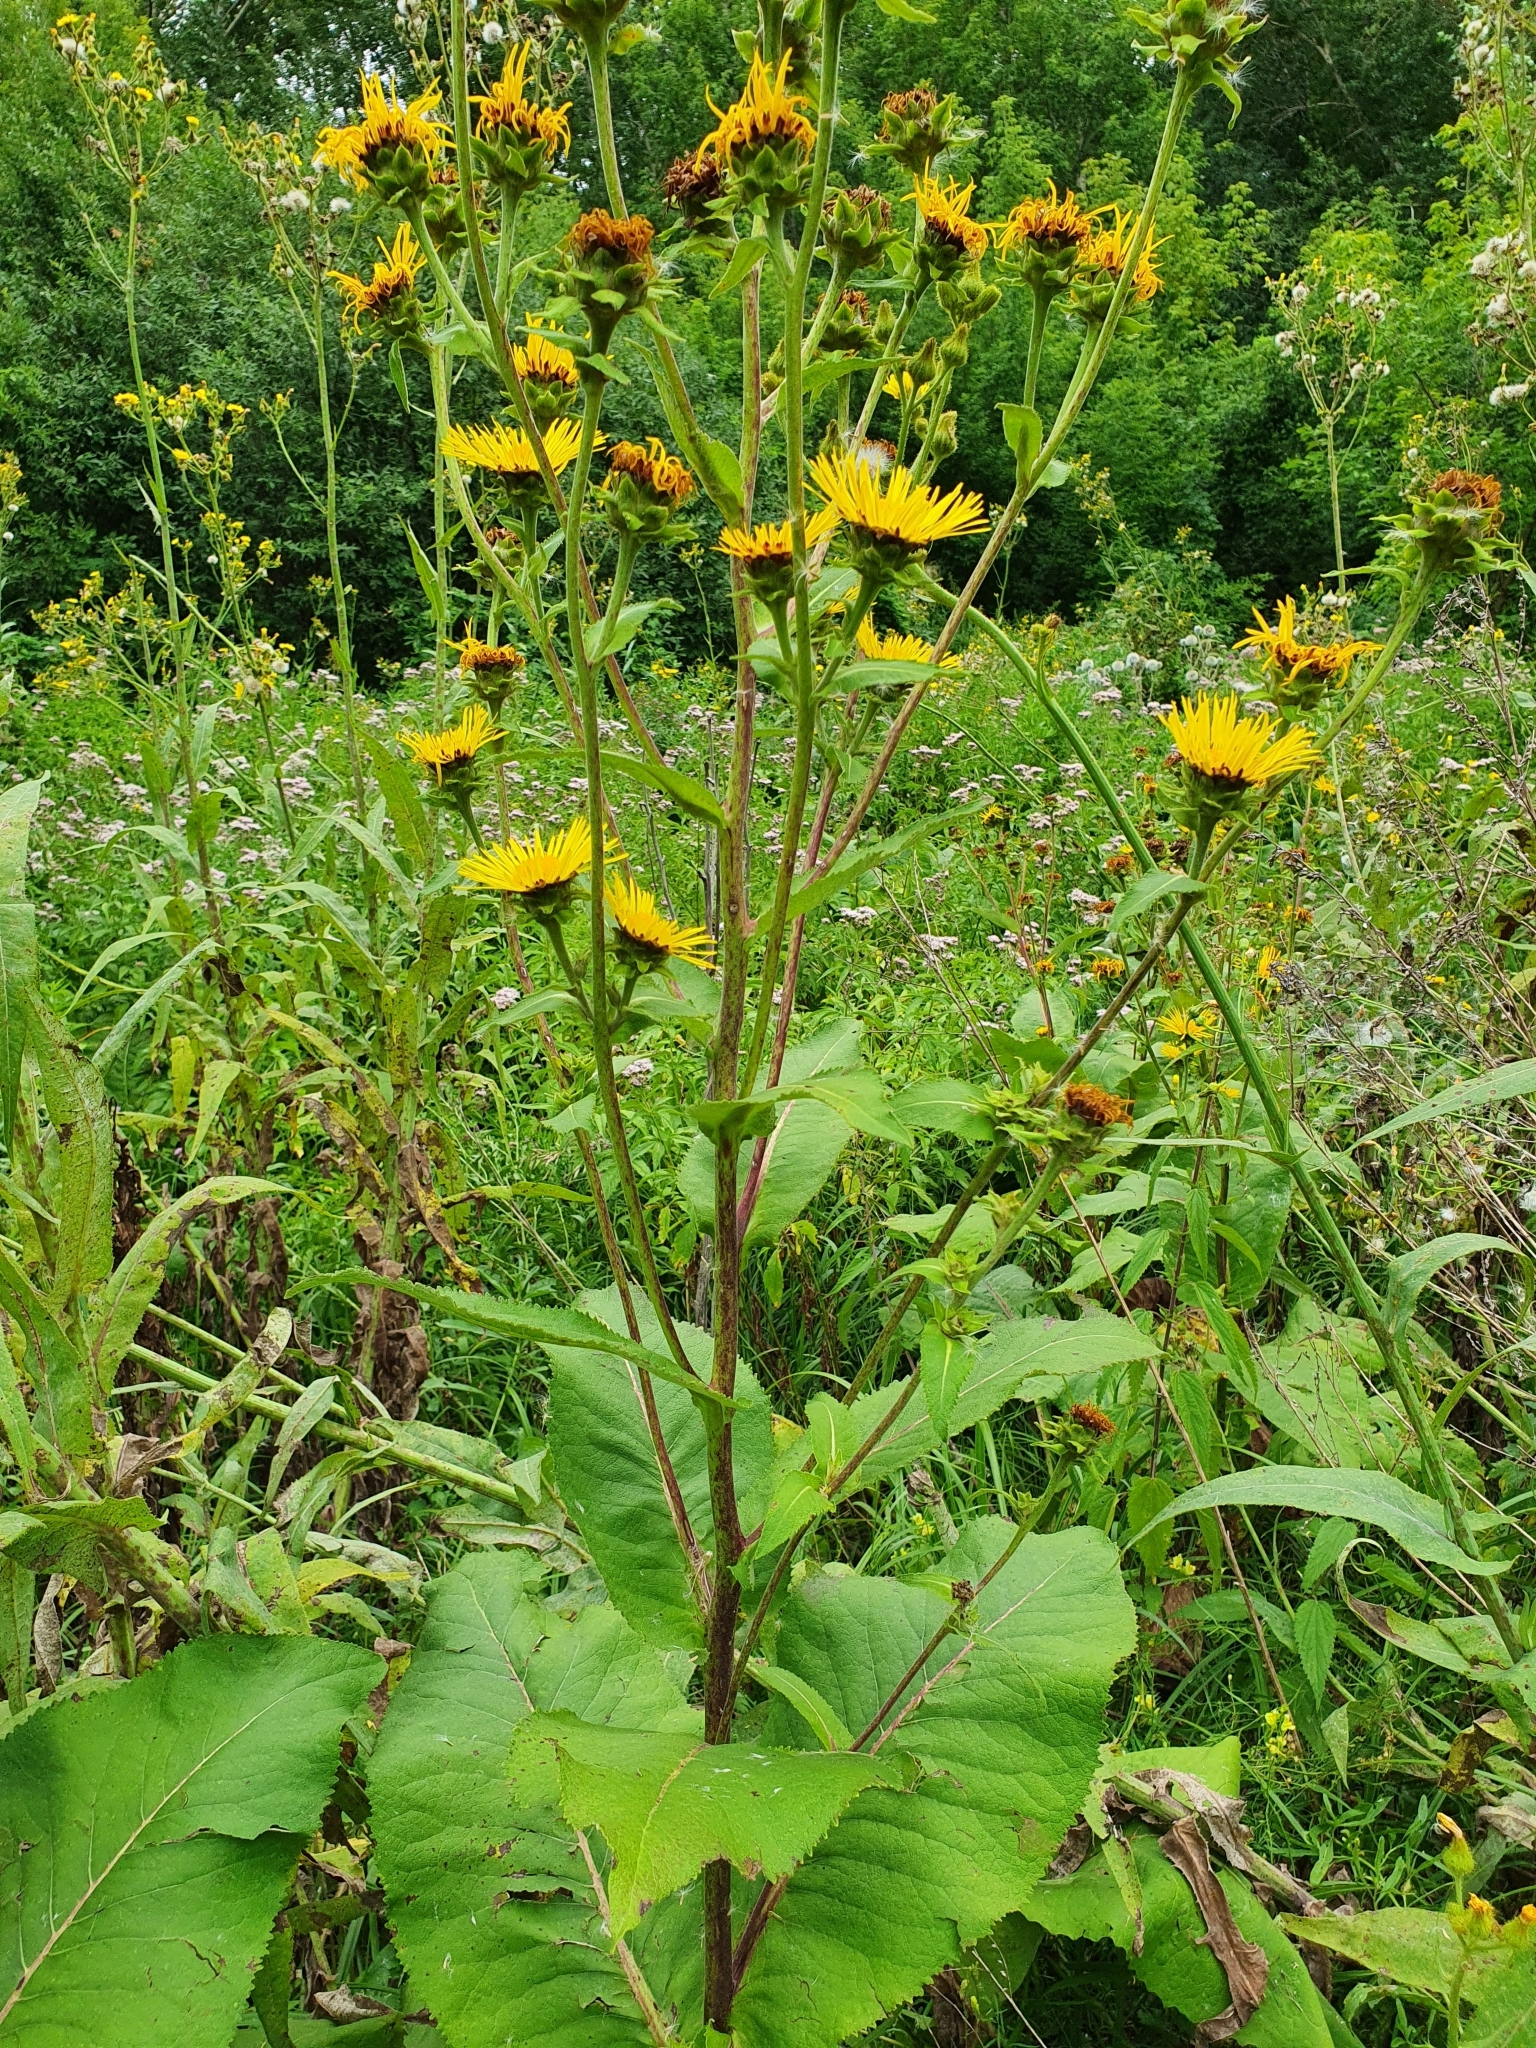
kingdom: Plantae
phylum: Tracheophyta
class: Magnoliopsida
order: Asterales
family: Asteraceae
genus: Inula
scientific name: Inula helenium
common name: Elecampane
